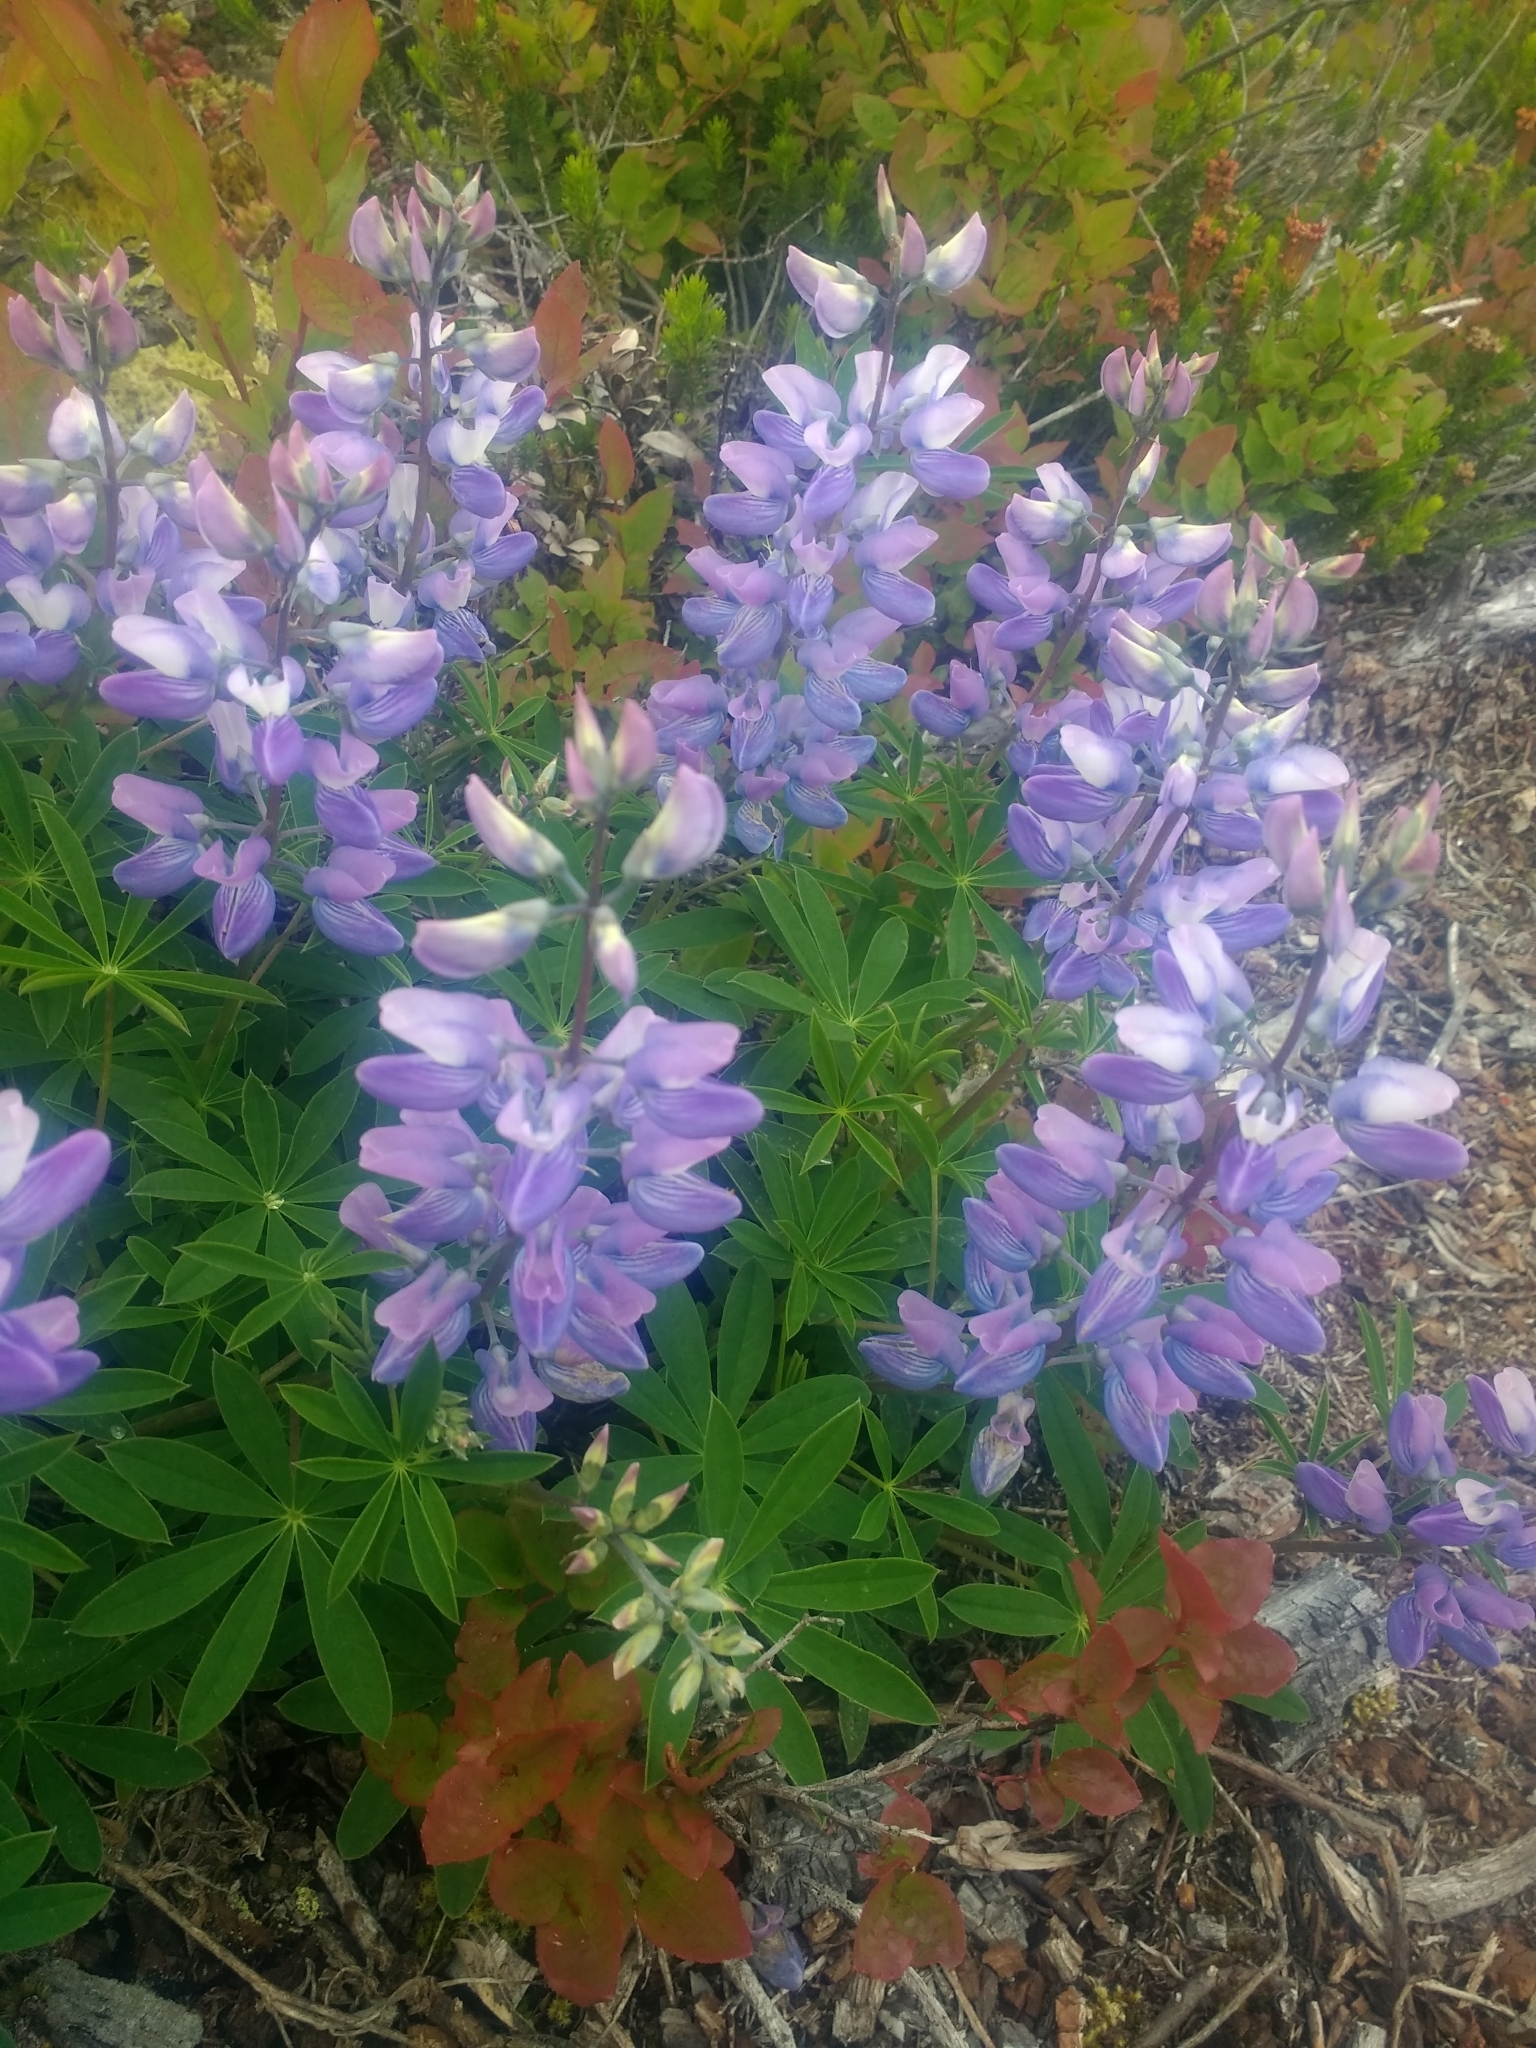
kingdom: Plantae
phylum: Tracheophyta
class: Magnoliopsida
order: Fabales
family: Fabaceae
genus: Lupinus
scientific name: Lupinus arcticus
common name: Arctic lupine
